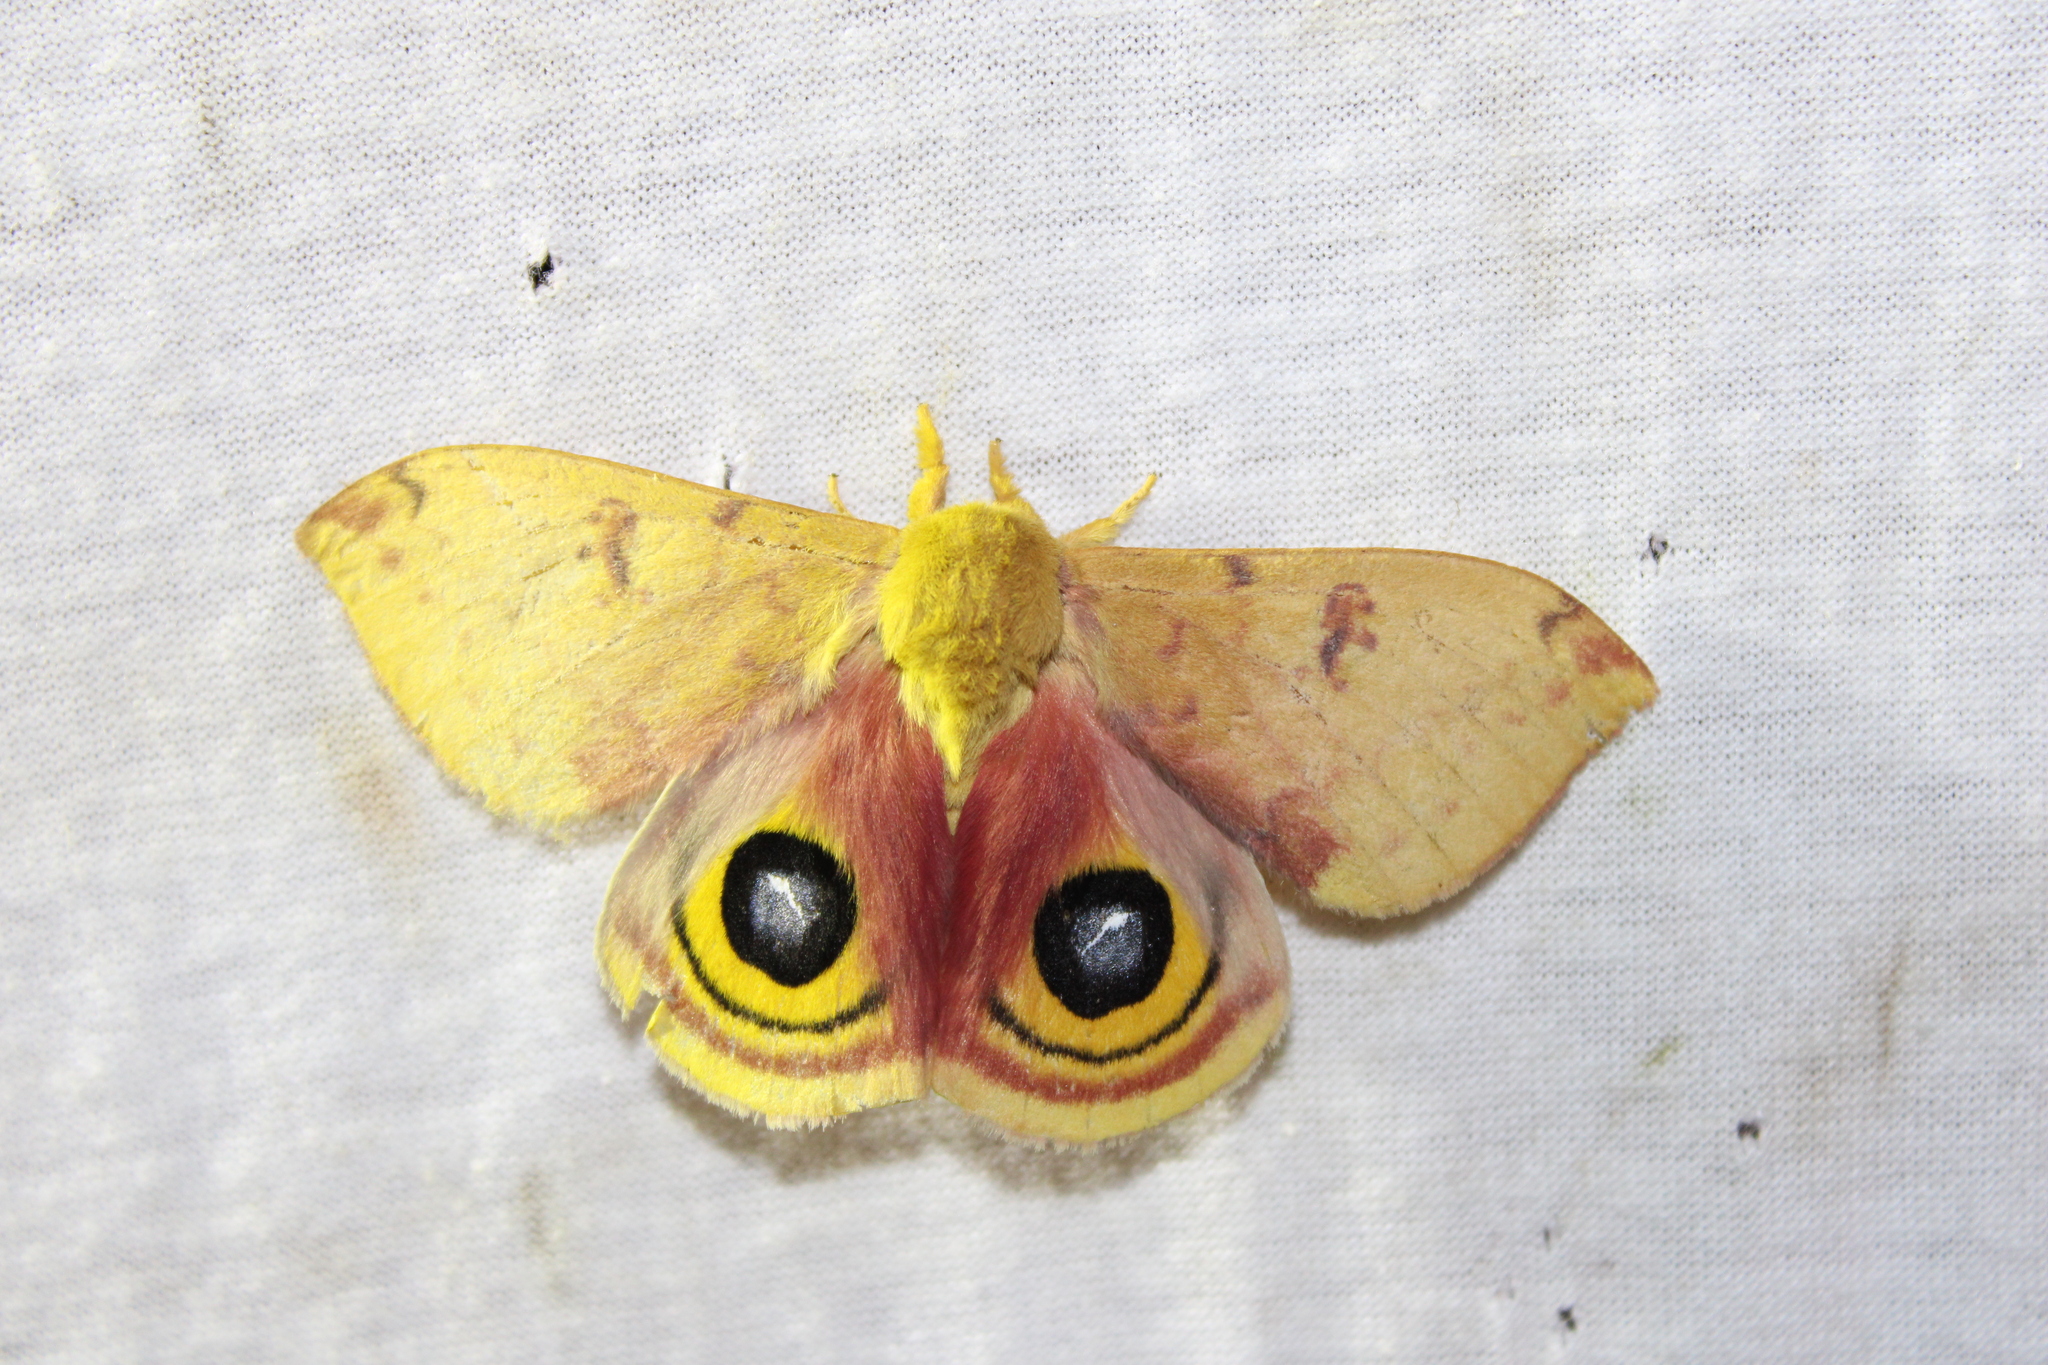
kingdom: Animalia
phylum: Arthropoda
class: Insecta
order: Lepidoptera
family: Saturniidae
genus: Automeris
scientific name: Automeris io
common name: Io moth
